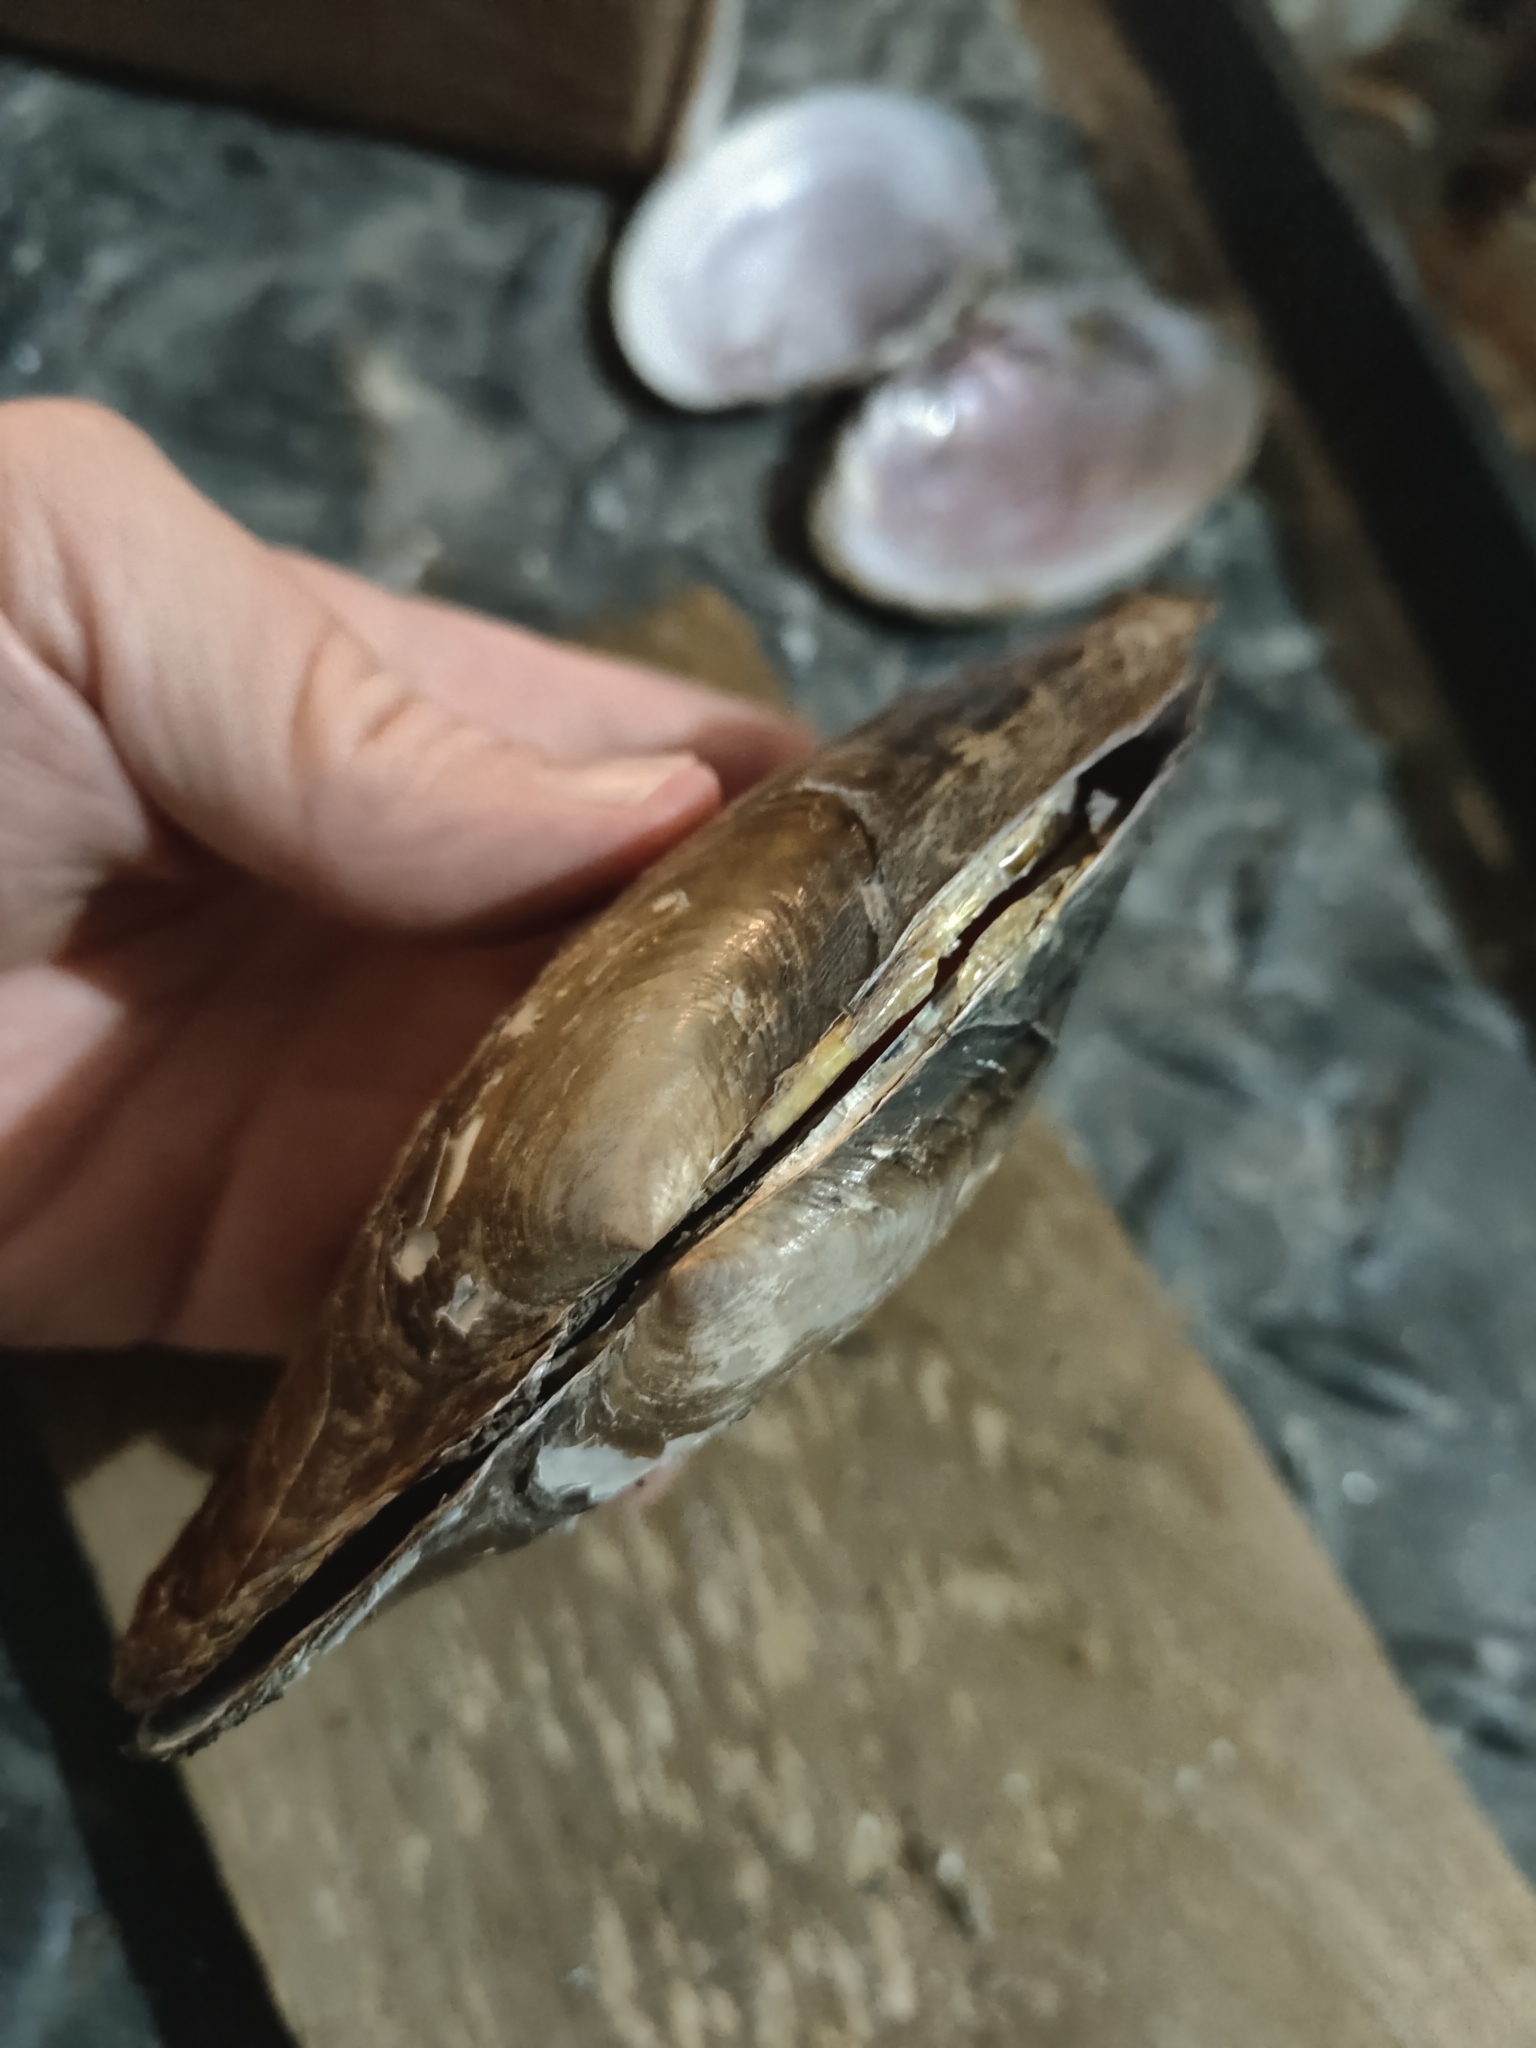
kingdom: Animalia
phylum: Mollusca
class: Bivalvia
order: Unionida
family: Unionidae
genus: Potamilus
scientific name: Potamilus ohiensis
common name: Pink papershell
